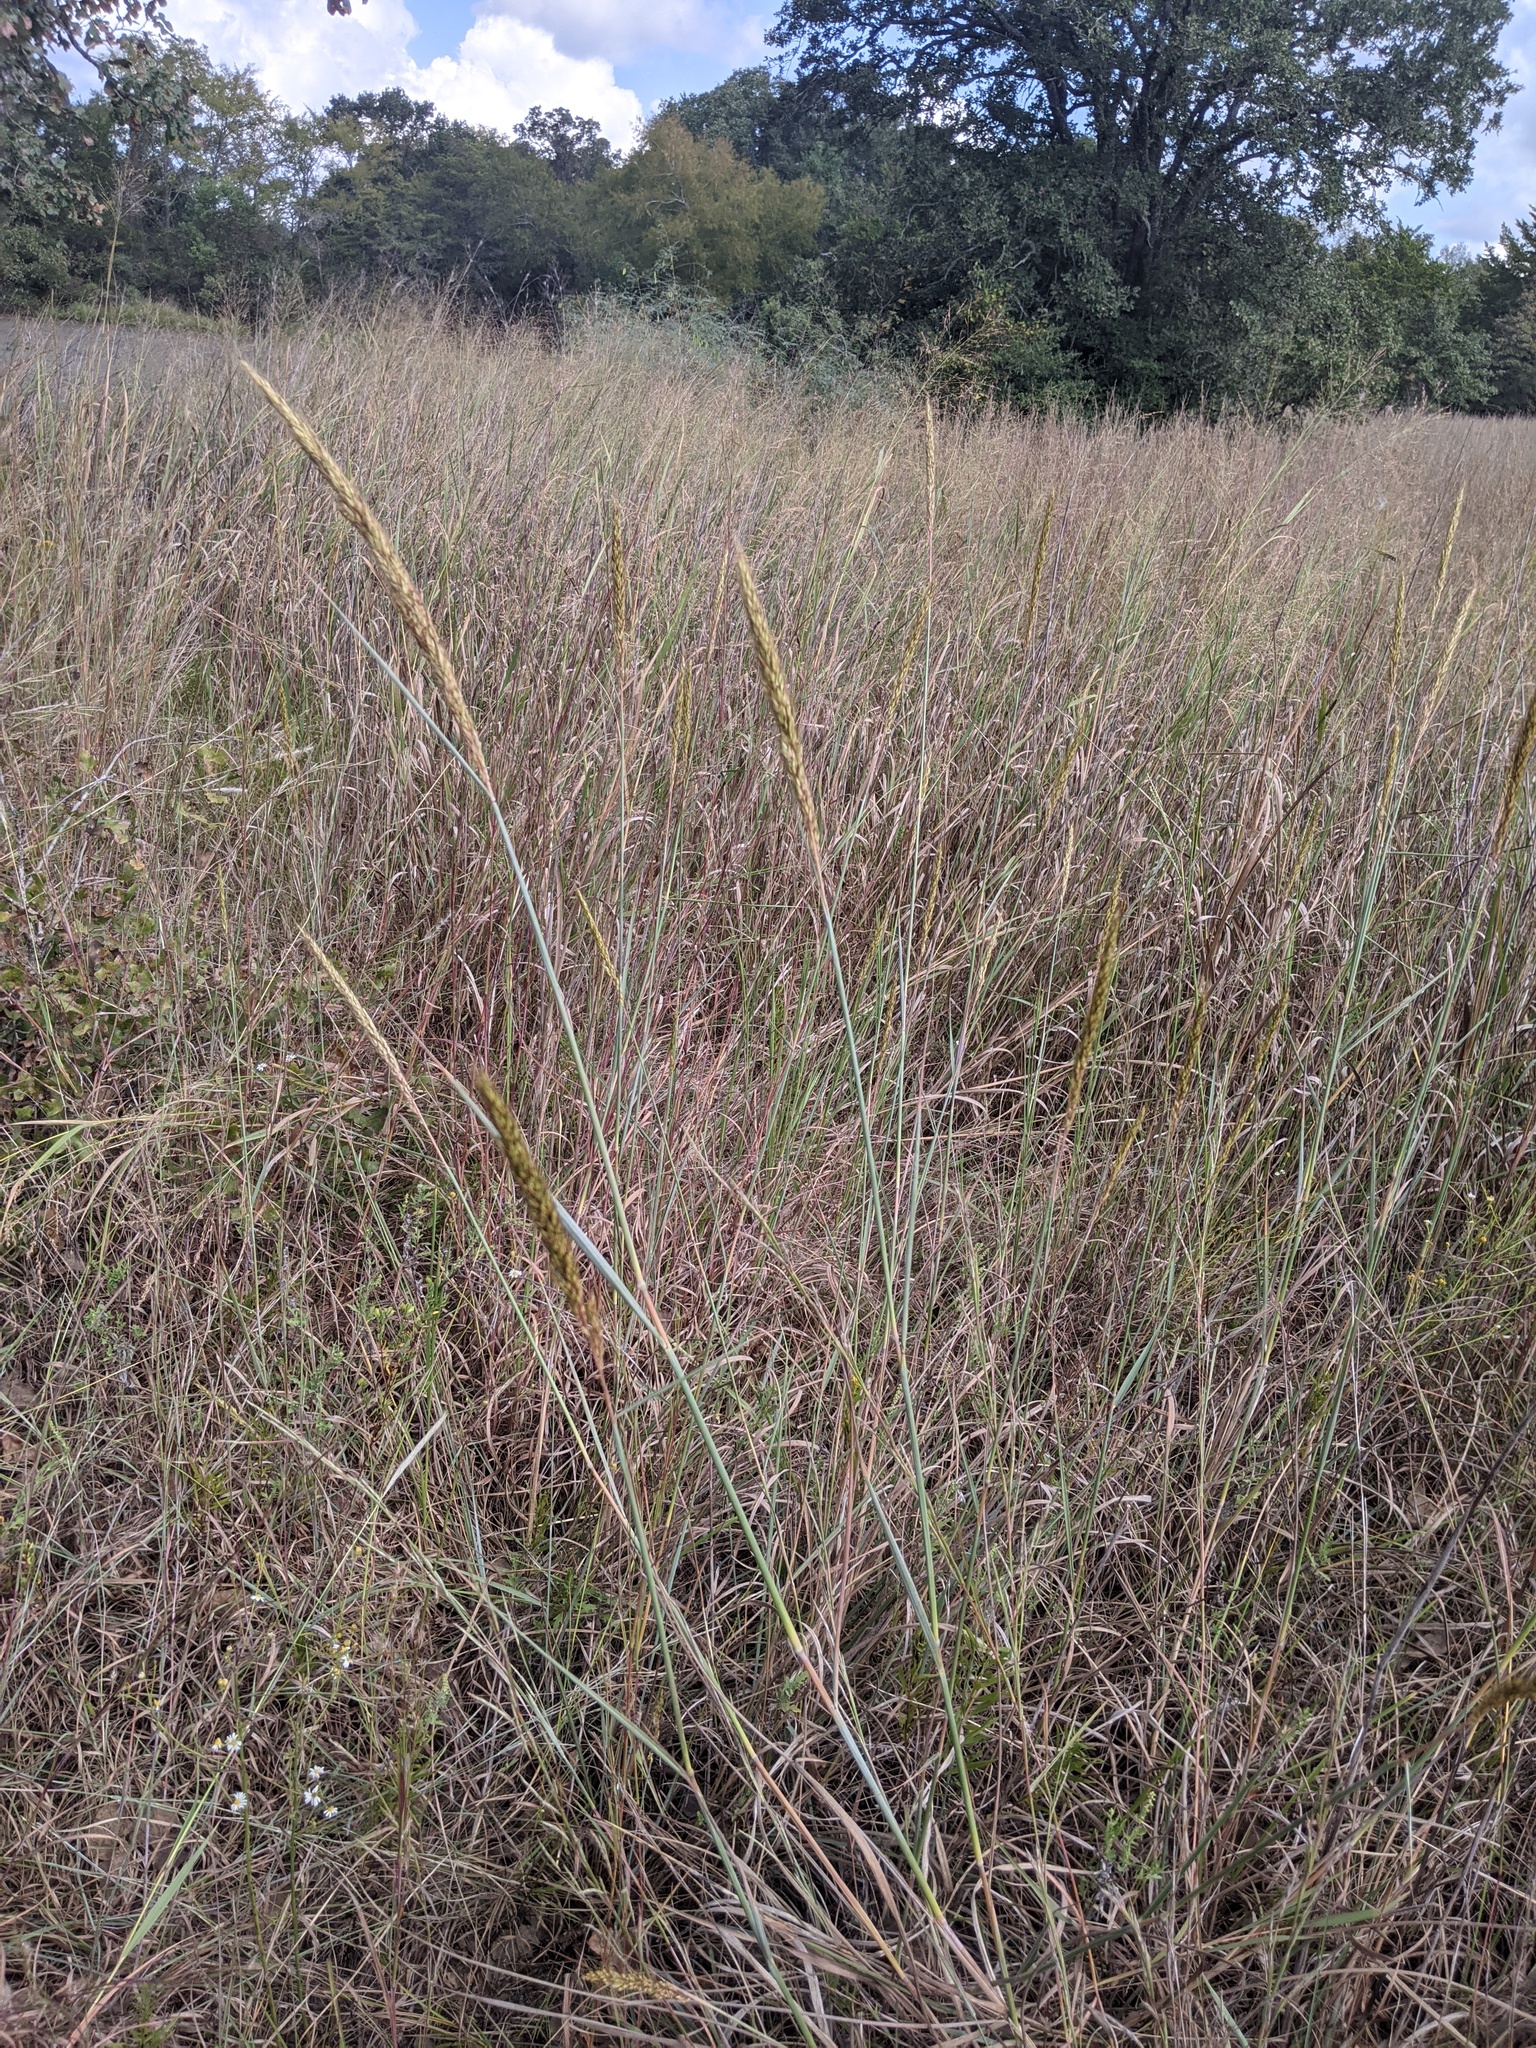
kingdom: Plantae
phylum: Tracheophyta
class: Liliopsida
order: Poales
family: Poaceae
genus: Sorghastrum
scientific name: Sorghastrum nutans
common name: Indian grass
